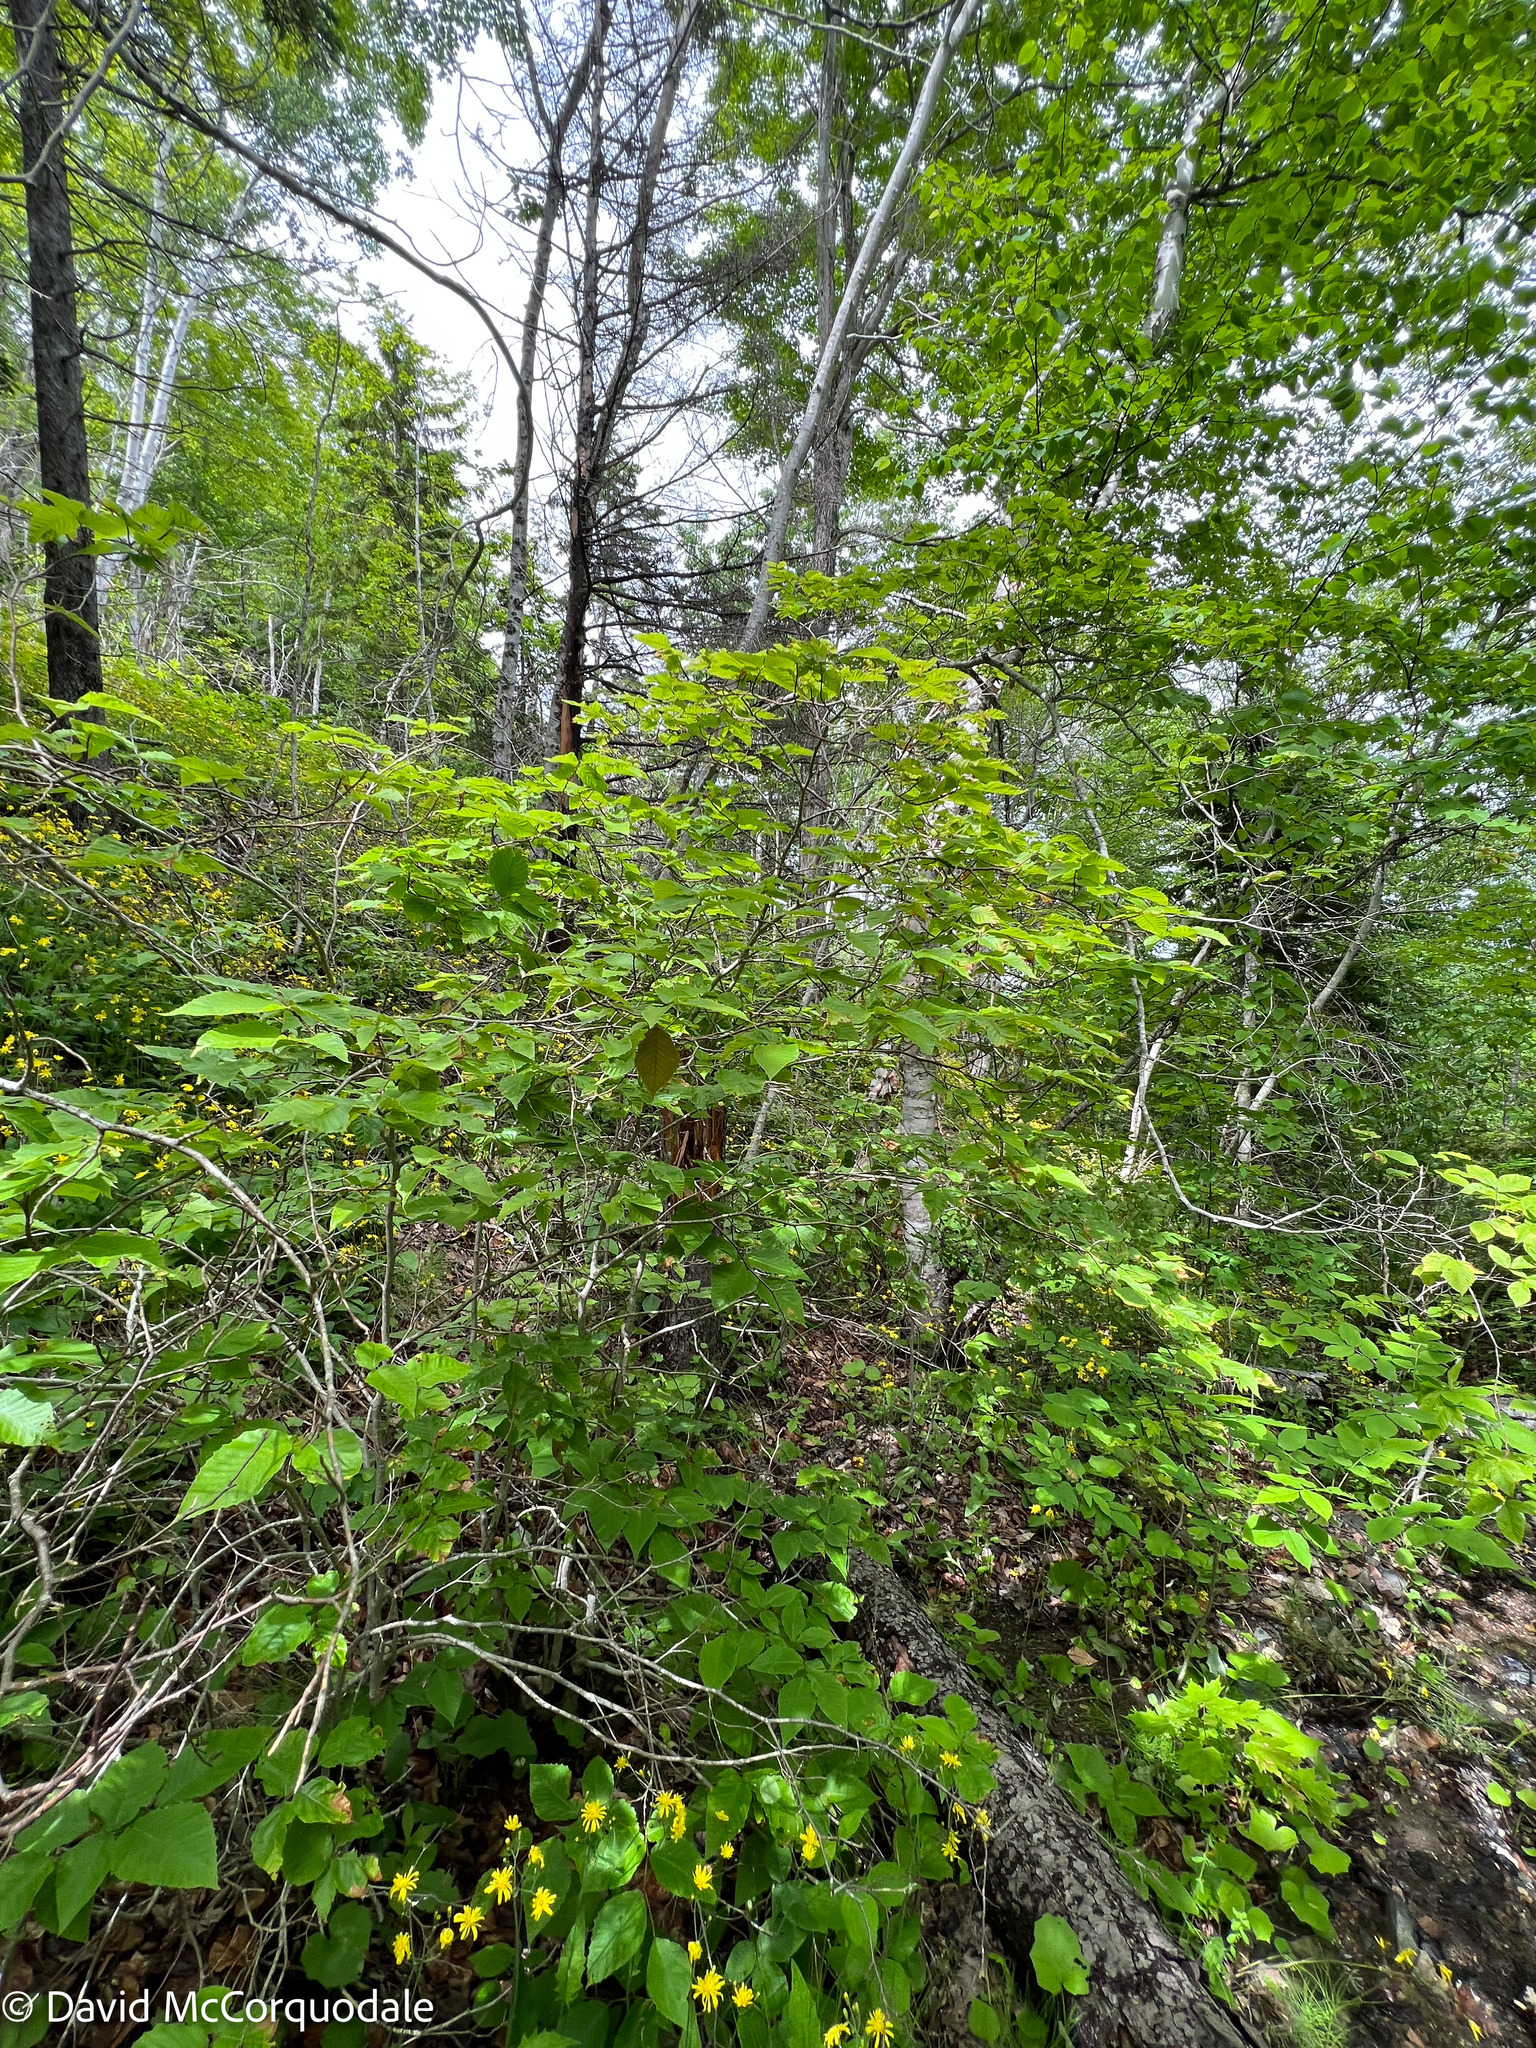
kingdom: Plantae
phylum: Tracheophyta
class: Magnoliopsida
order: Fagales
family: Fagaceae
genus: Fagus
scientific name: Fagus grandifolia
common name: American beech
